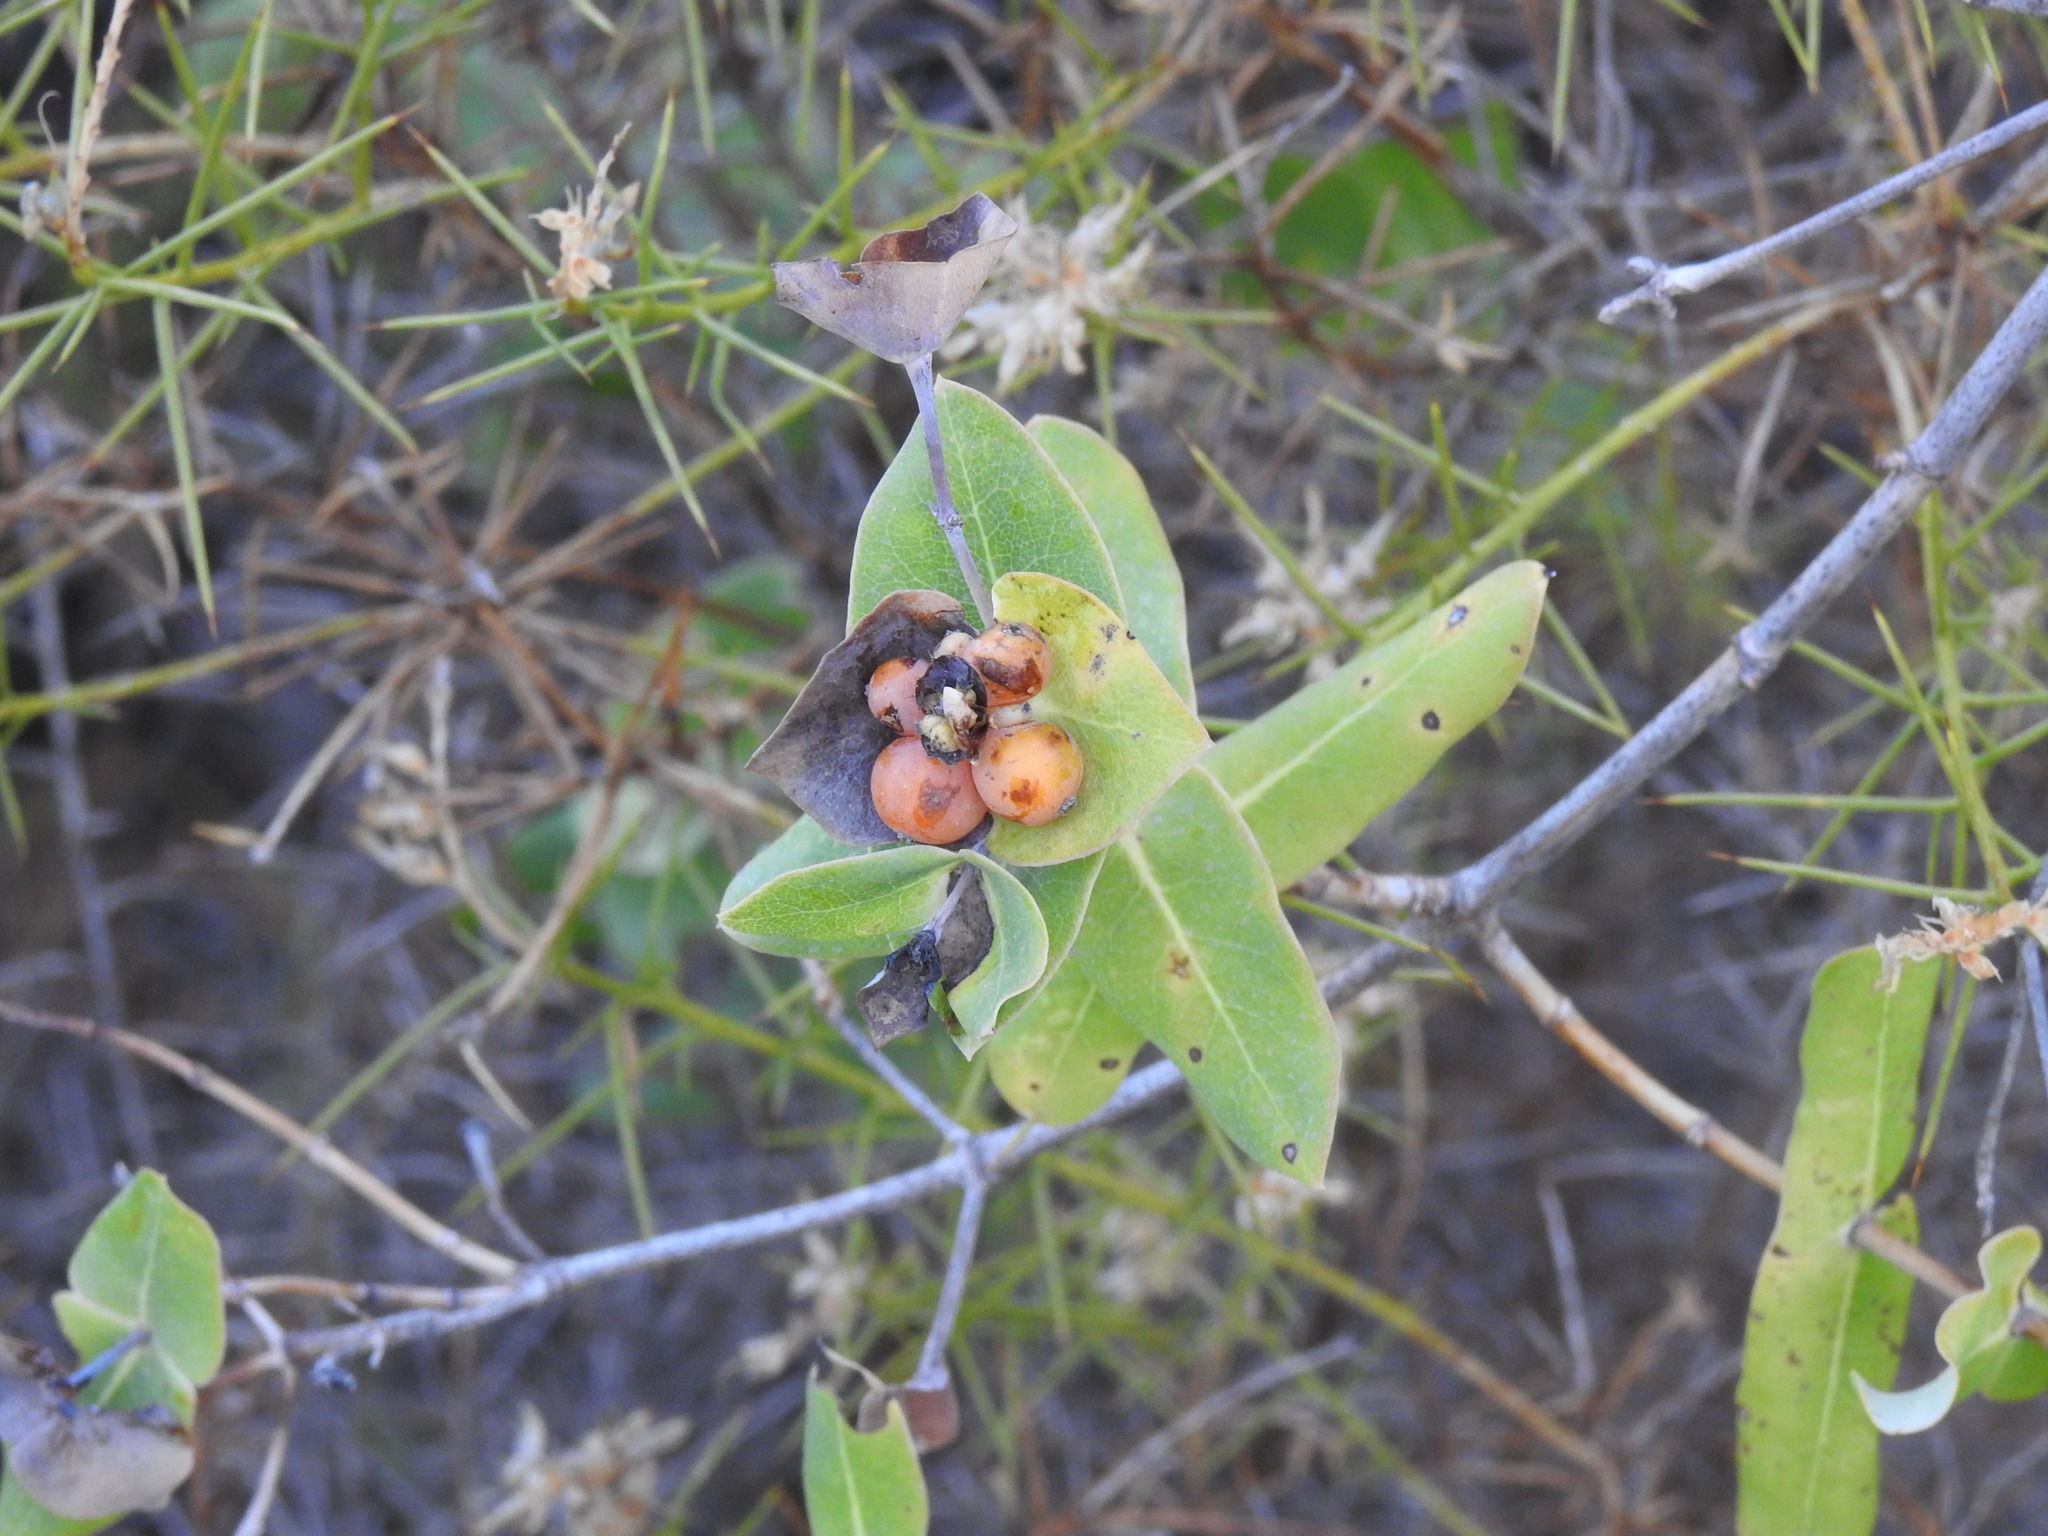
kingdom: Plantae
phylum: Tracheophyta
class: Magnoliopsida
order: Dipsacales
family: Caprifoliaceae
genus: Lonicera
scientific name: Lonicera implexa
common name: Minorca honeysuckle
